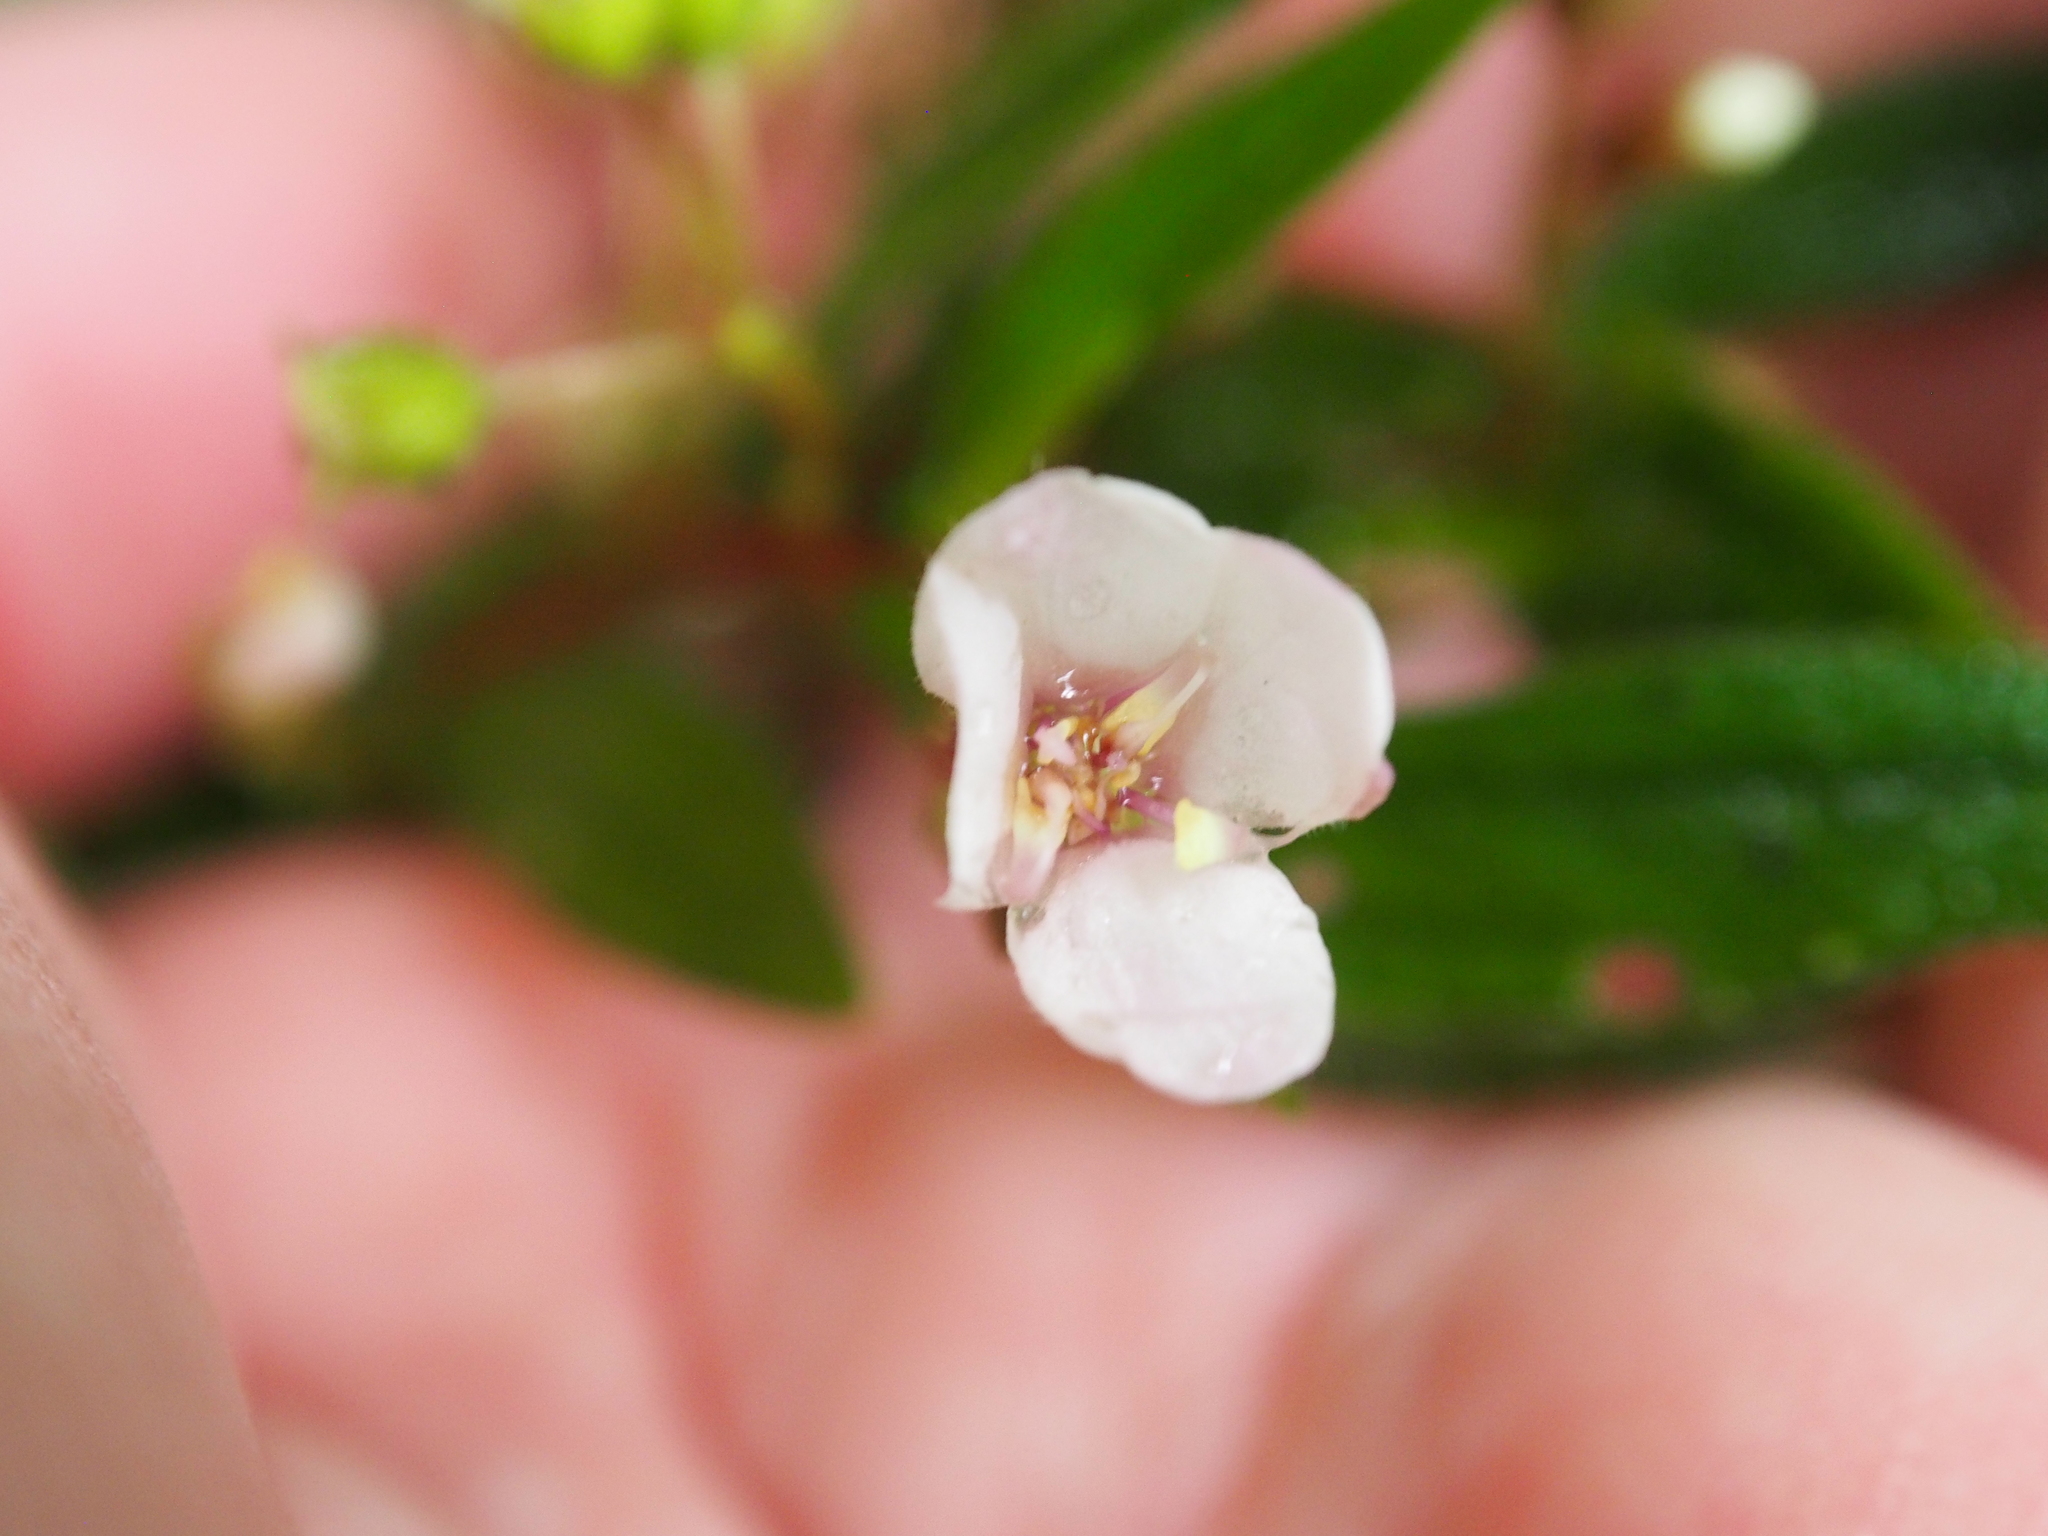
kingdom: Plantae
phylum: Tracheophyta
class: Magnoliopsida
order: Myrtales
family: Melastomataceae
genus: Centradenia
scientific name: Centradenia inaequilateralis
